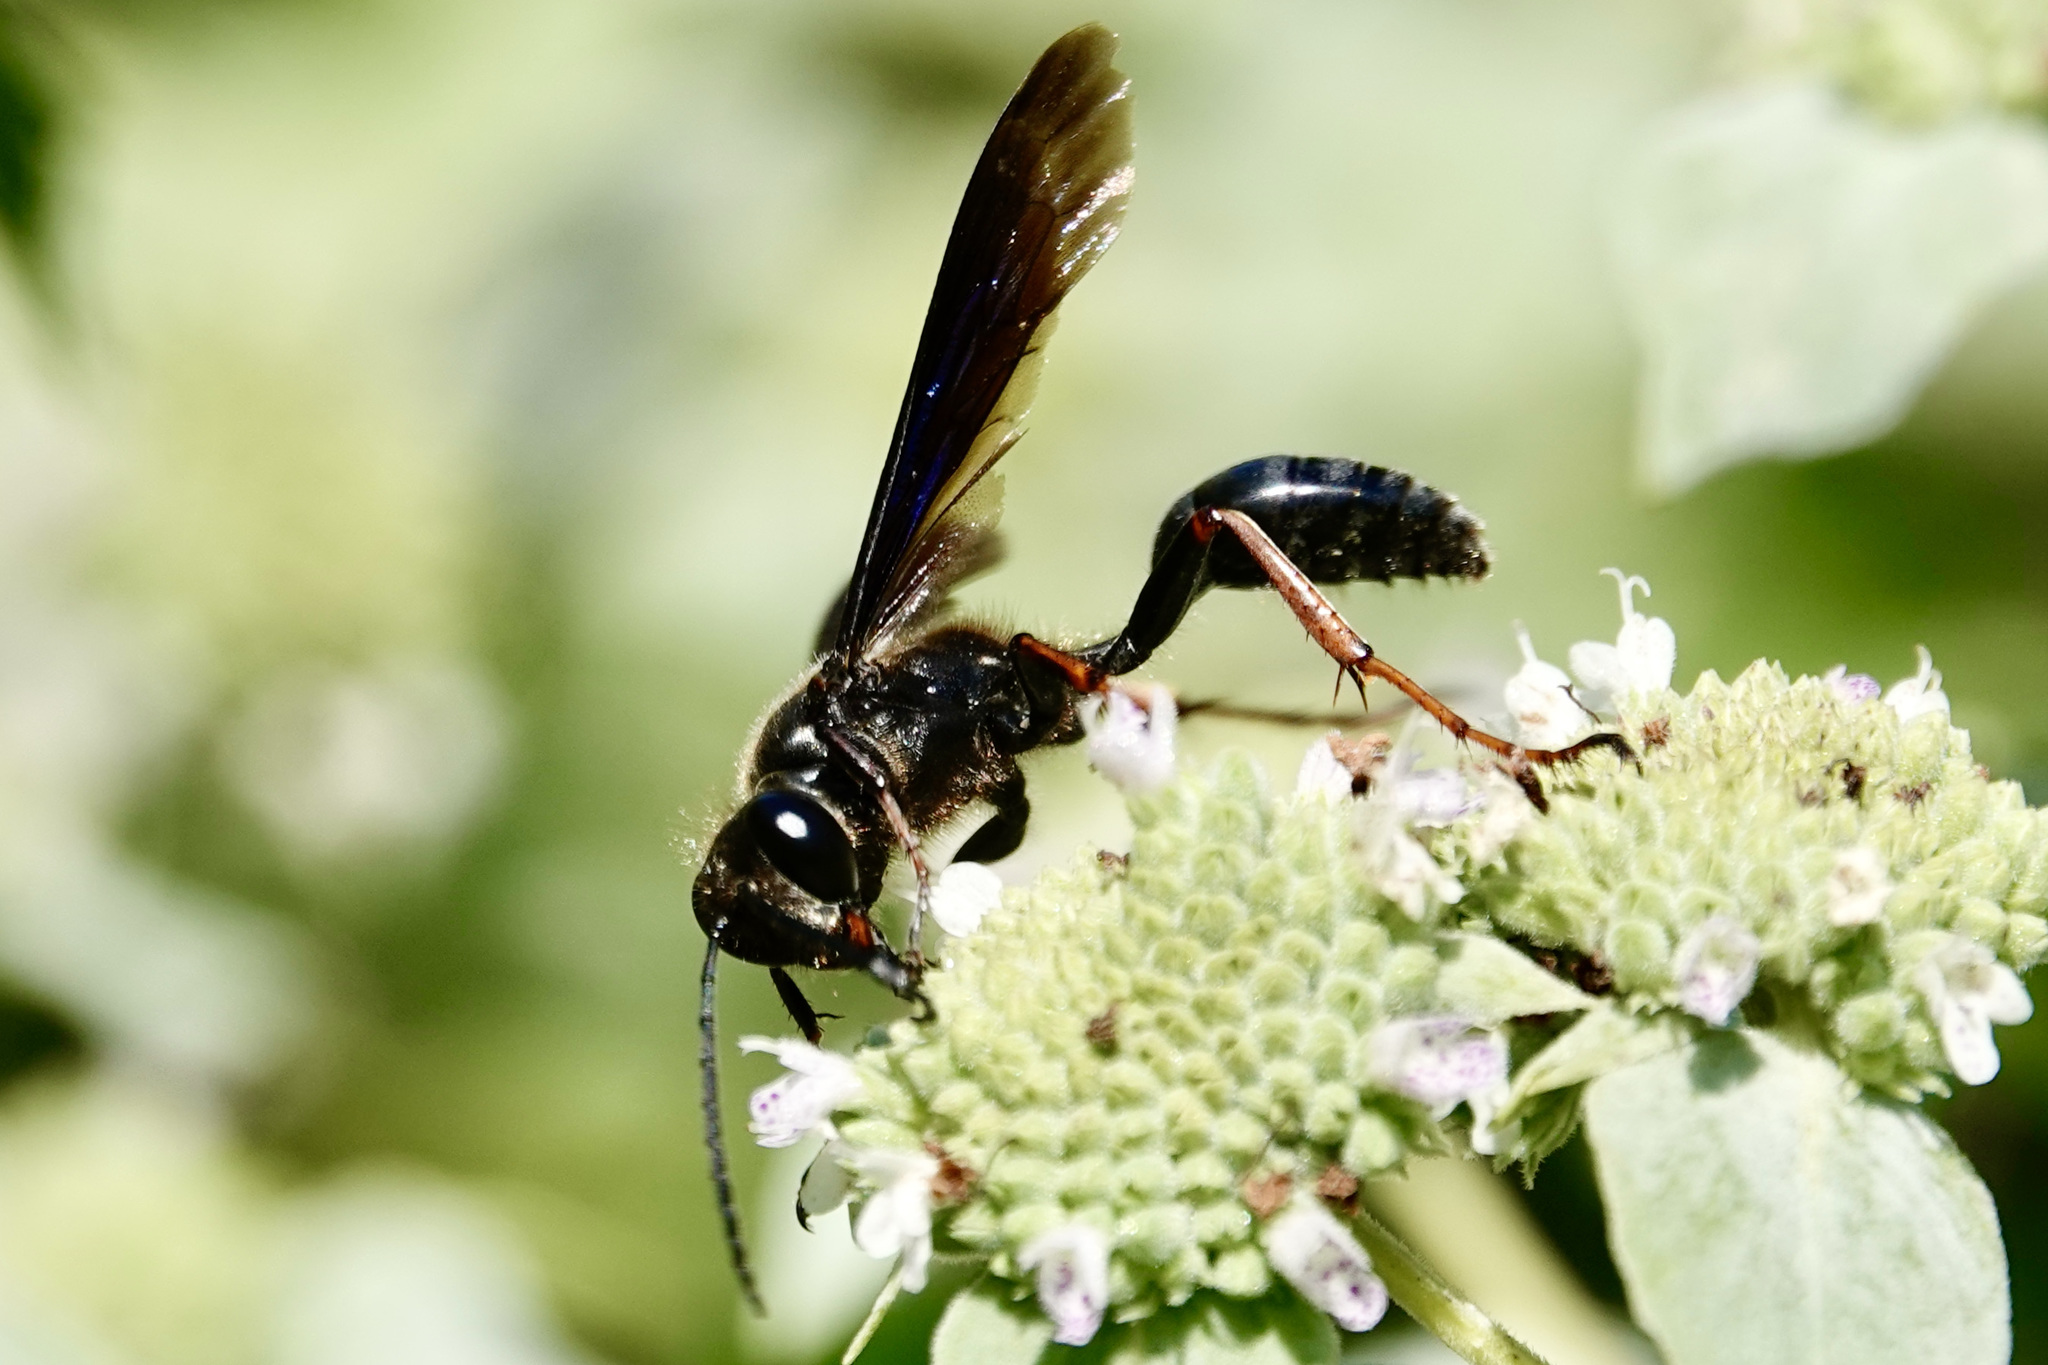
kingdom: Animalia
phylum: Arthropoda
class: Insecta
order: Hymenoptera
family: Sphecidae
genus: Isodontia
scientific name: Isodontia auripes
